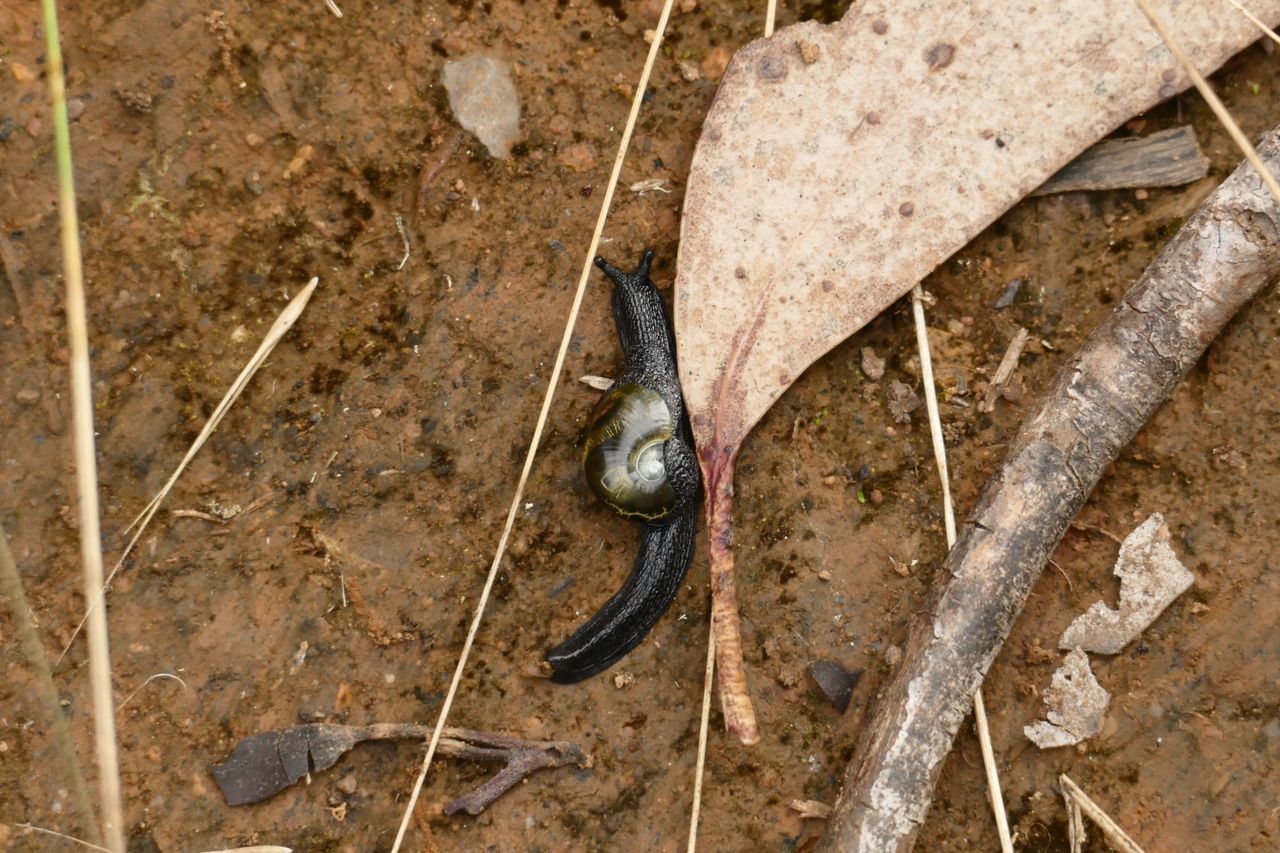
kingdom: Animalia
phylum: Mollusca
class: Gastropoda
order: Stylommatophora
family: Helicarionidae
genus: Helicarion
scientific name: Helicarion cuvieri
